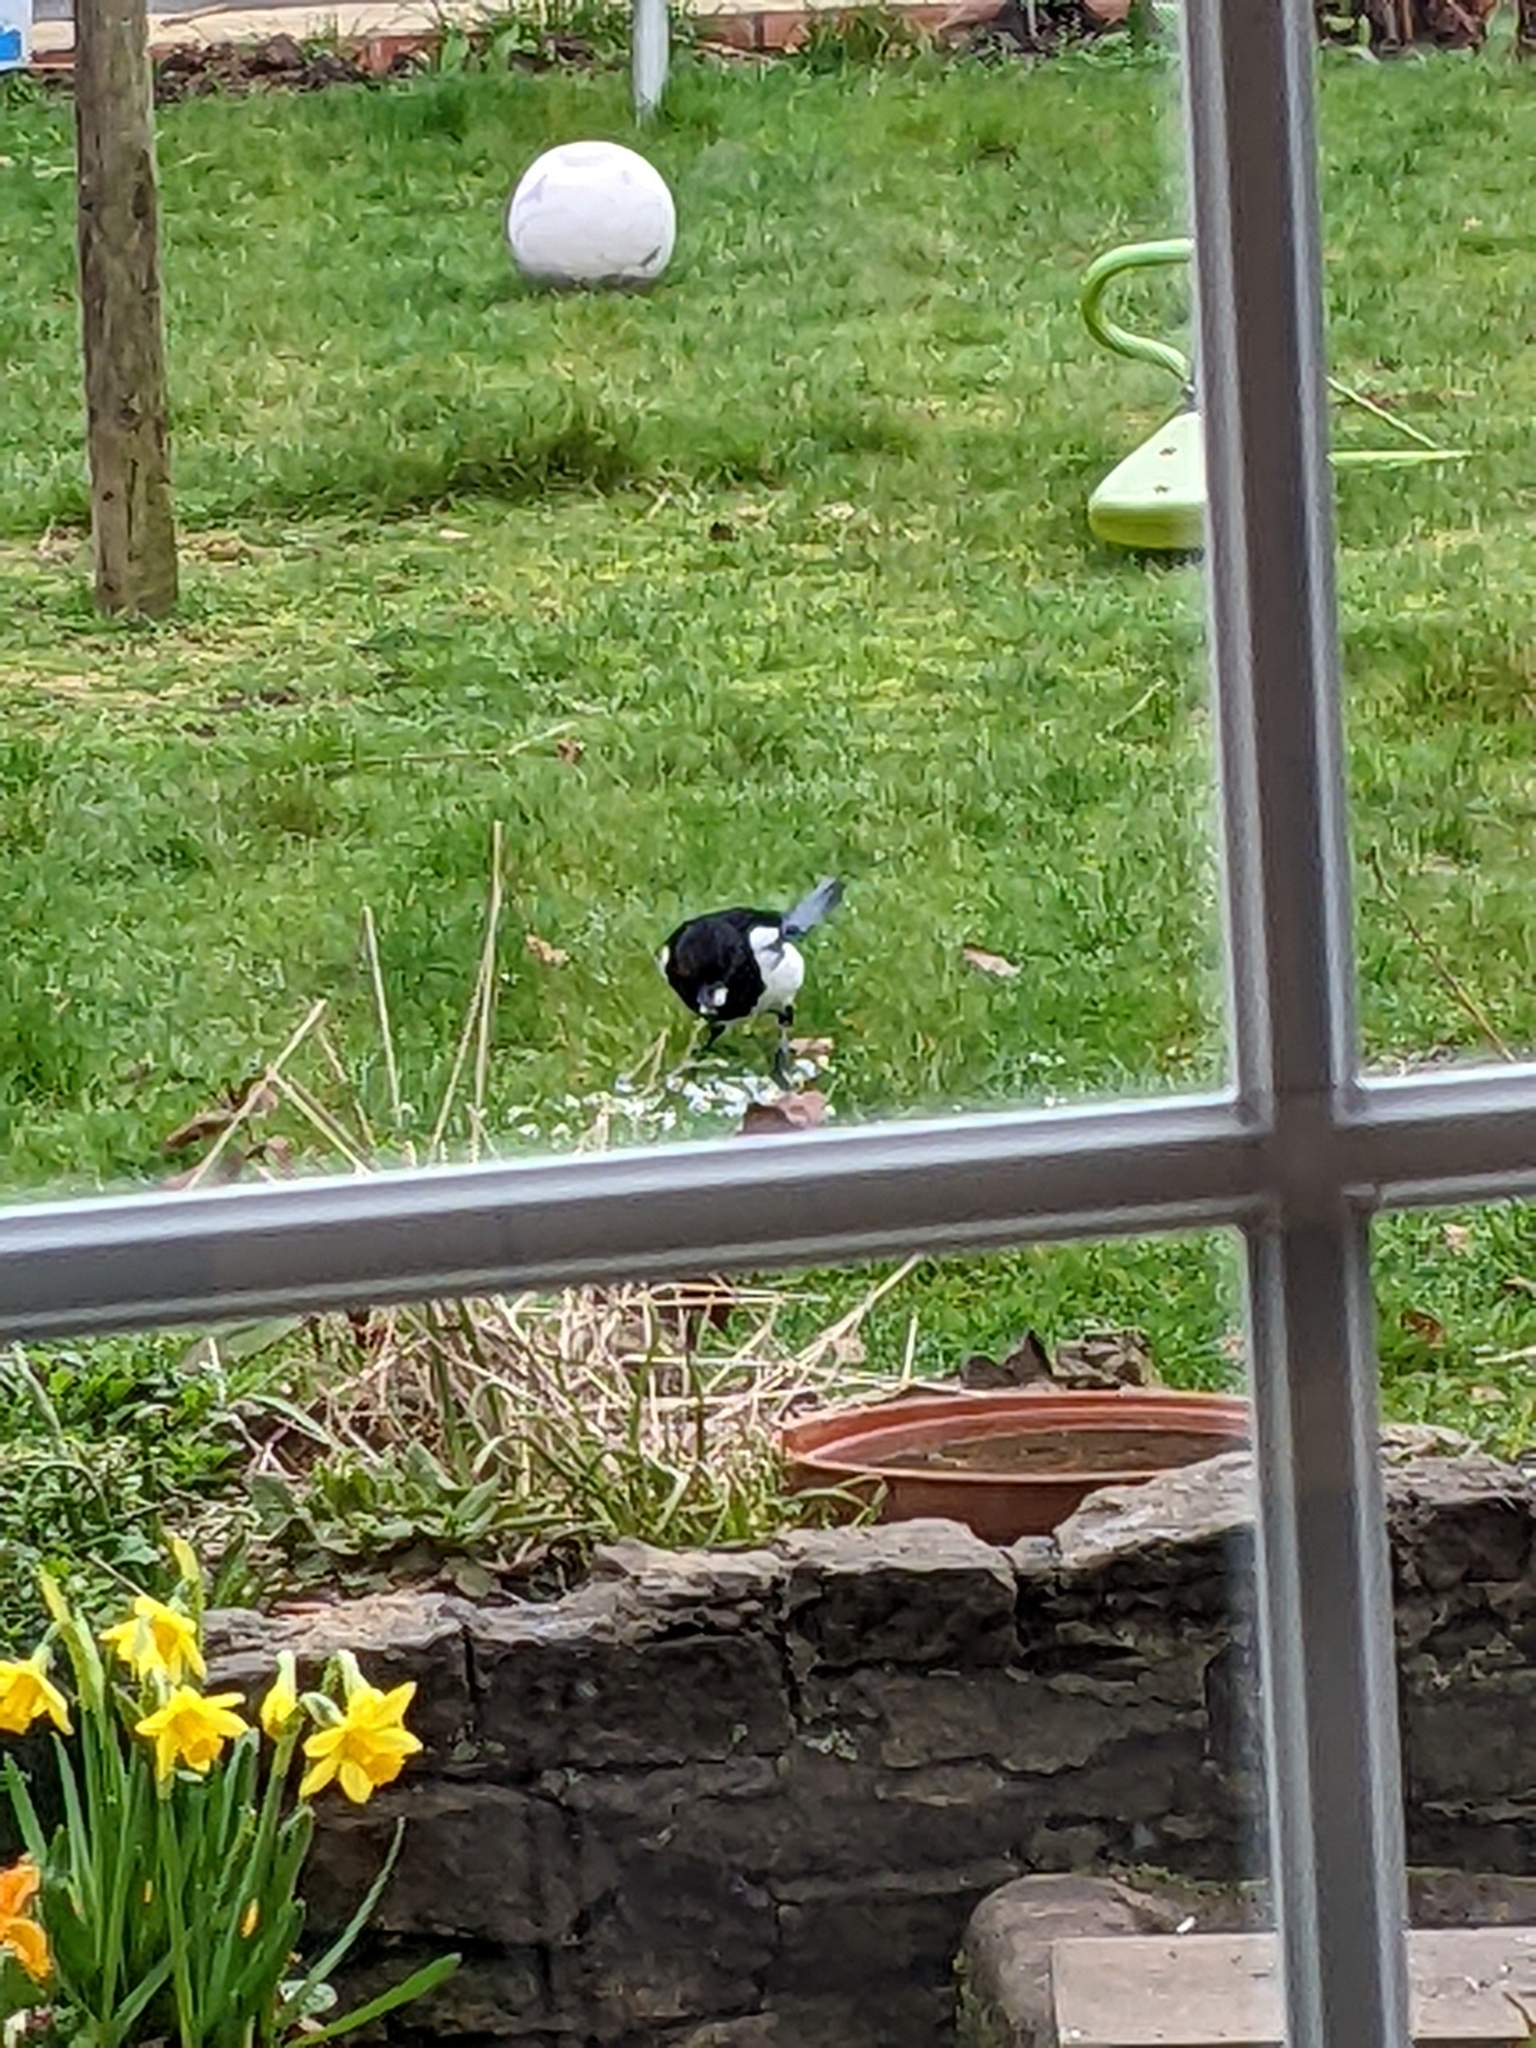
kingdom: Animalia
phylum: Chordata
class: Aves
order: Passeriformes
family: Corvidae
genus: Pica
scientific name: Pica pica
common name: Eurasian magpie
